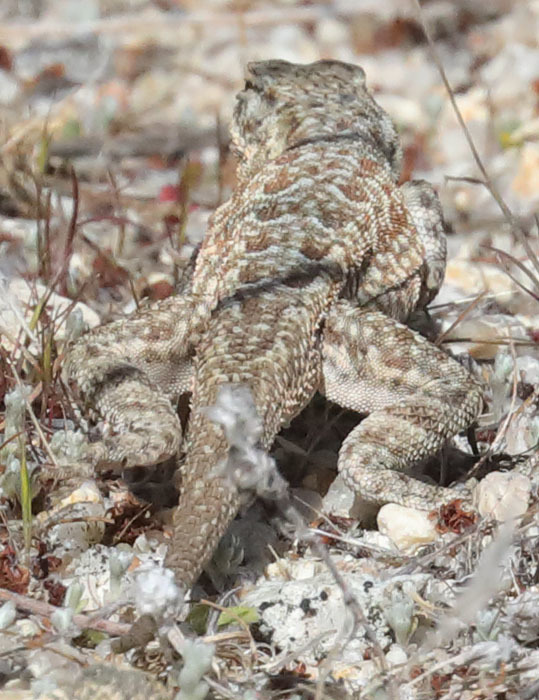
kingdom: Animalia
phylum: Chordata
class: Squamata
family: Phrynosomatidae
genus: Uta
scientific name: Uta stansburiana
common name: Side-blotched lizard
